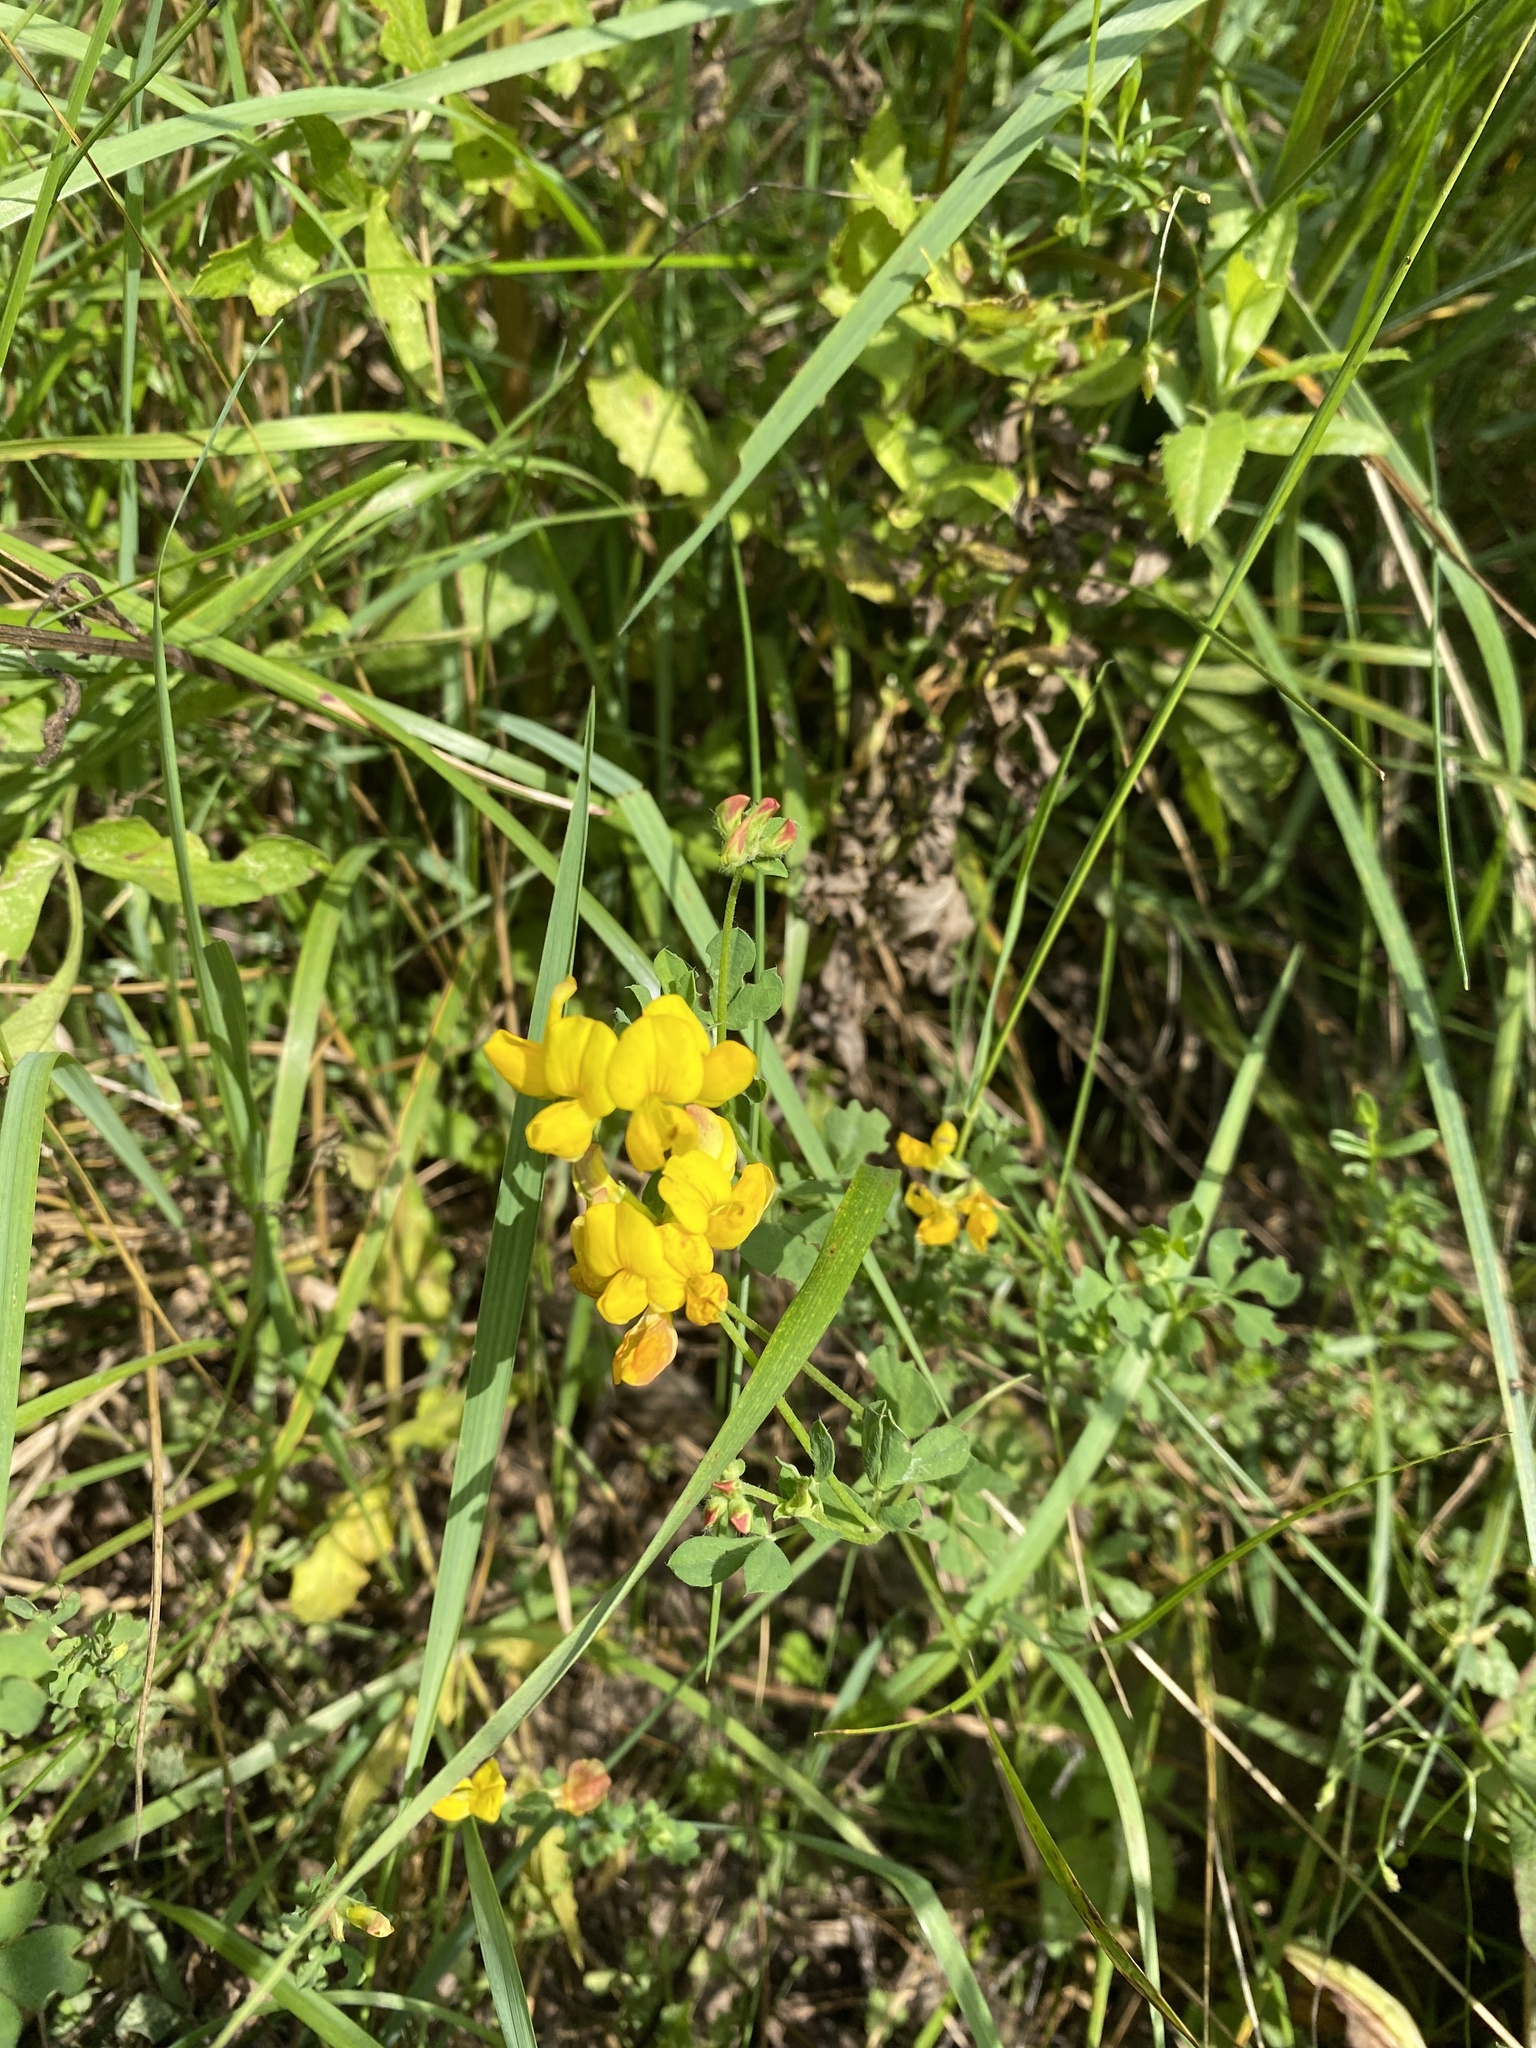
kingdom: Plantae
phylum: Tracheophyta
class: Magnoliopsida
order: Fabales
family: Fabaceae
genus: Lotus
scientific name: Lotus corniculatus
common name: Common bird's-foot-trefoil
